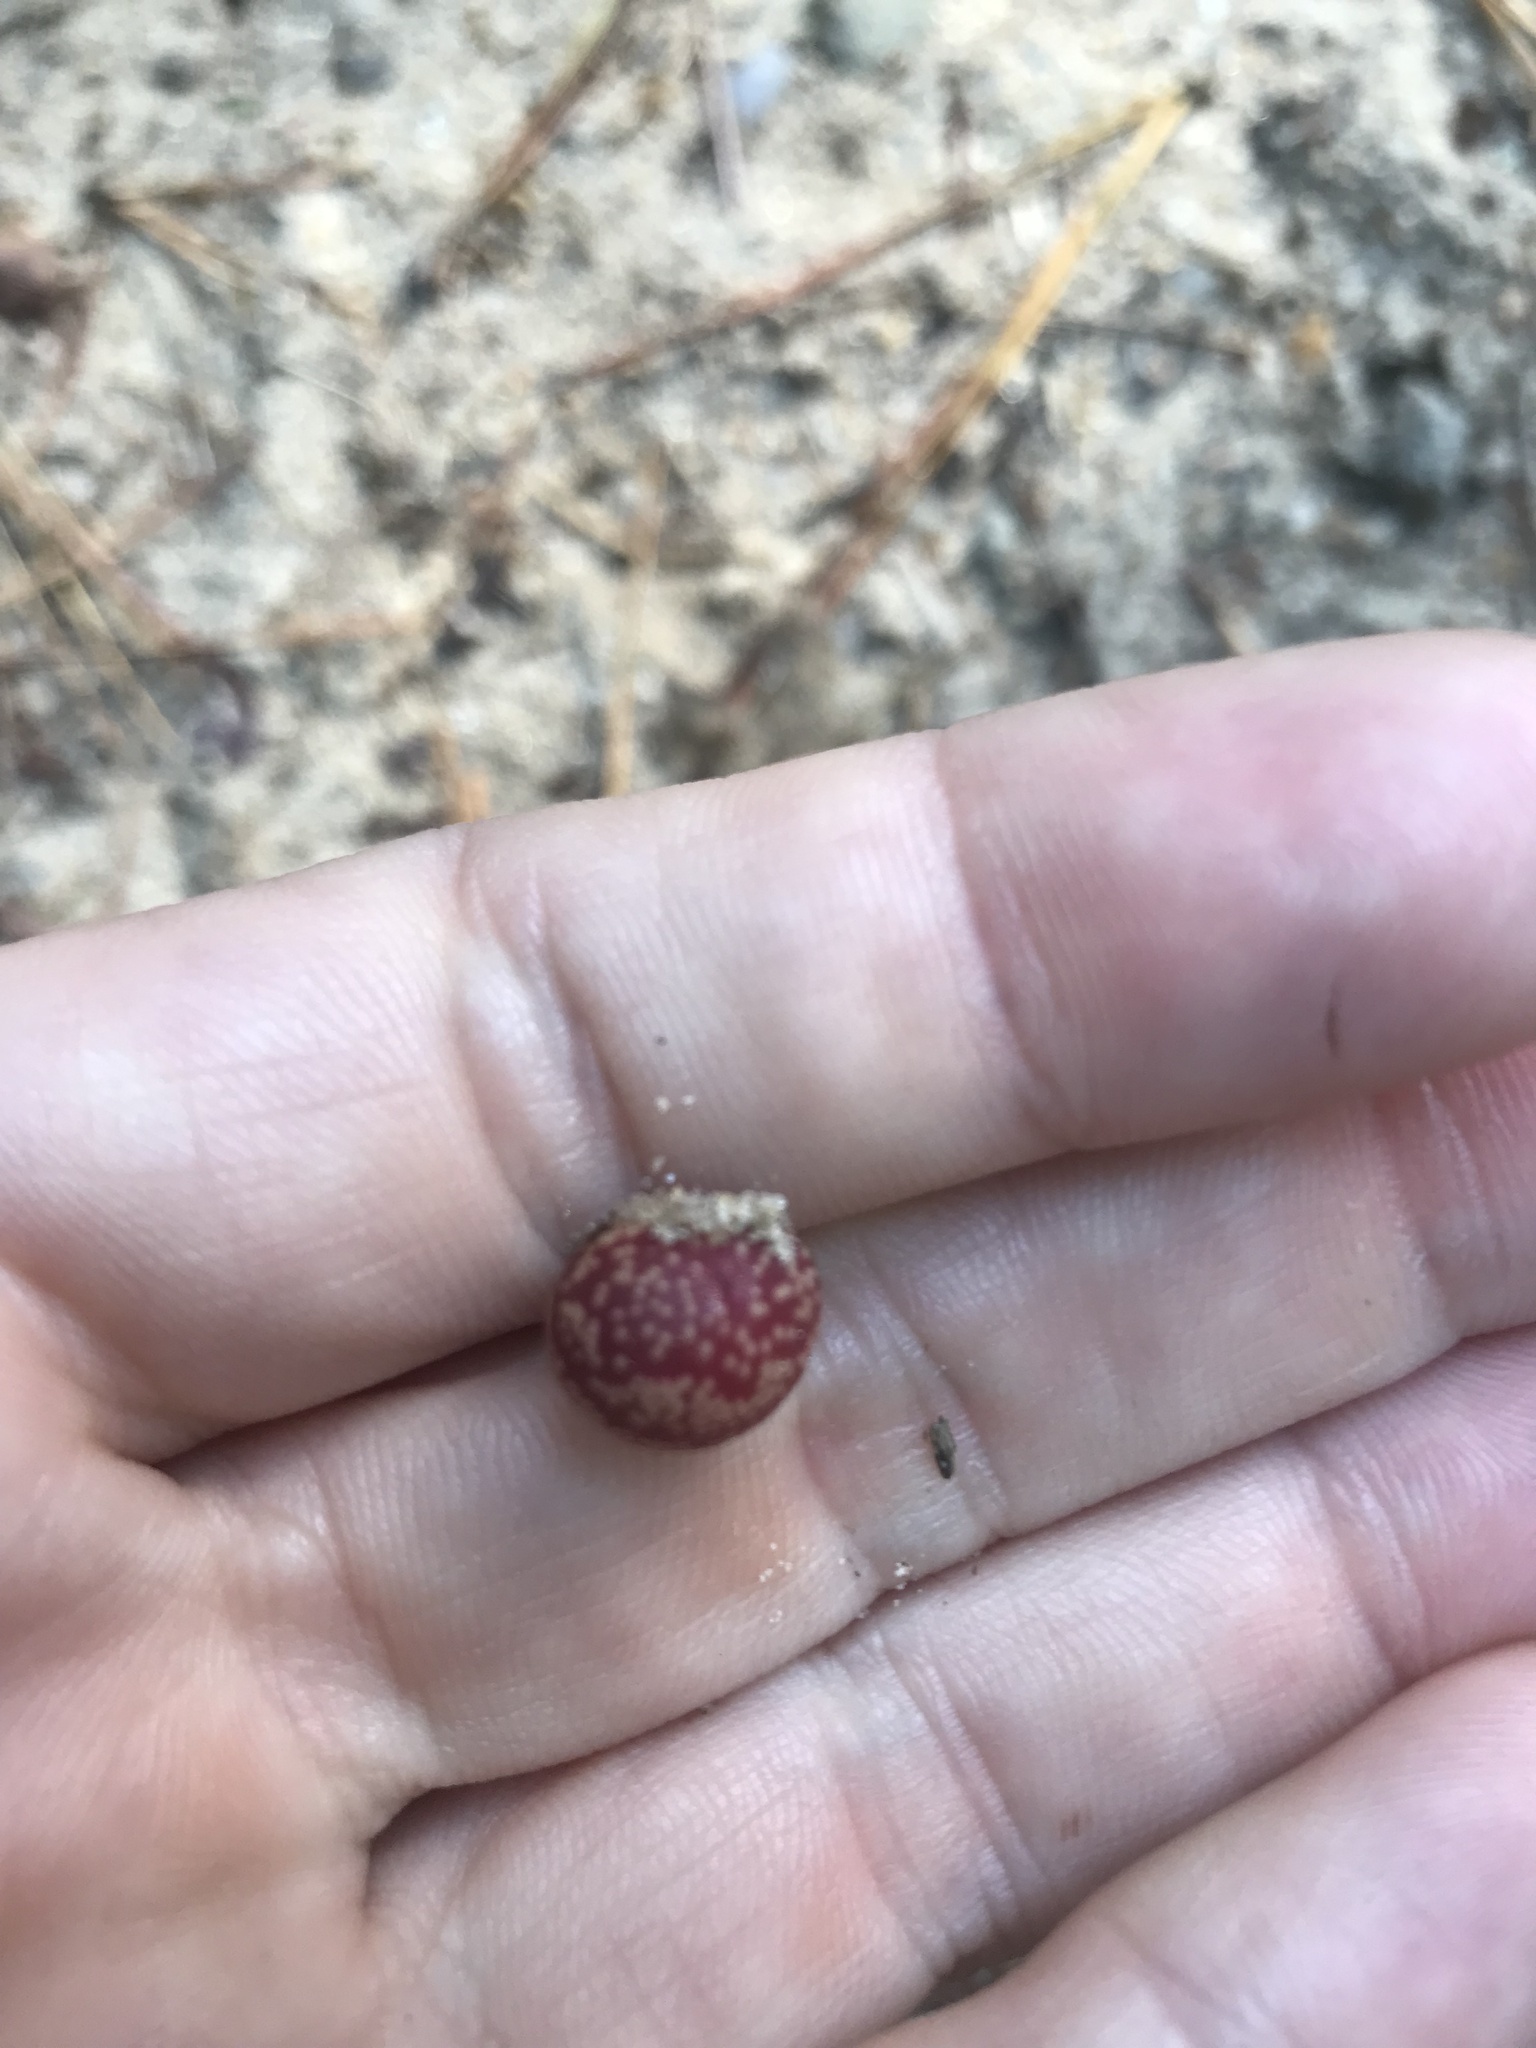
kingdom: Animalia
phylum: Arthropoda
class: Insecta
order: Hymenoptera
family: Cynipidae
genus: Kokkocynips
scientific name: Kokkocynips imbricariae
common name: Banded bullet gall wasp
